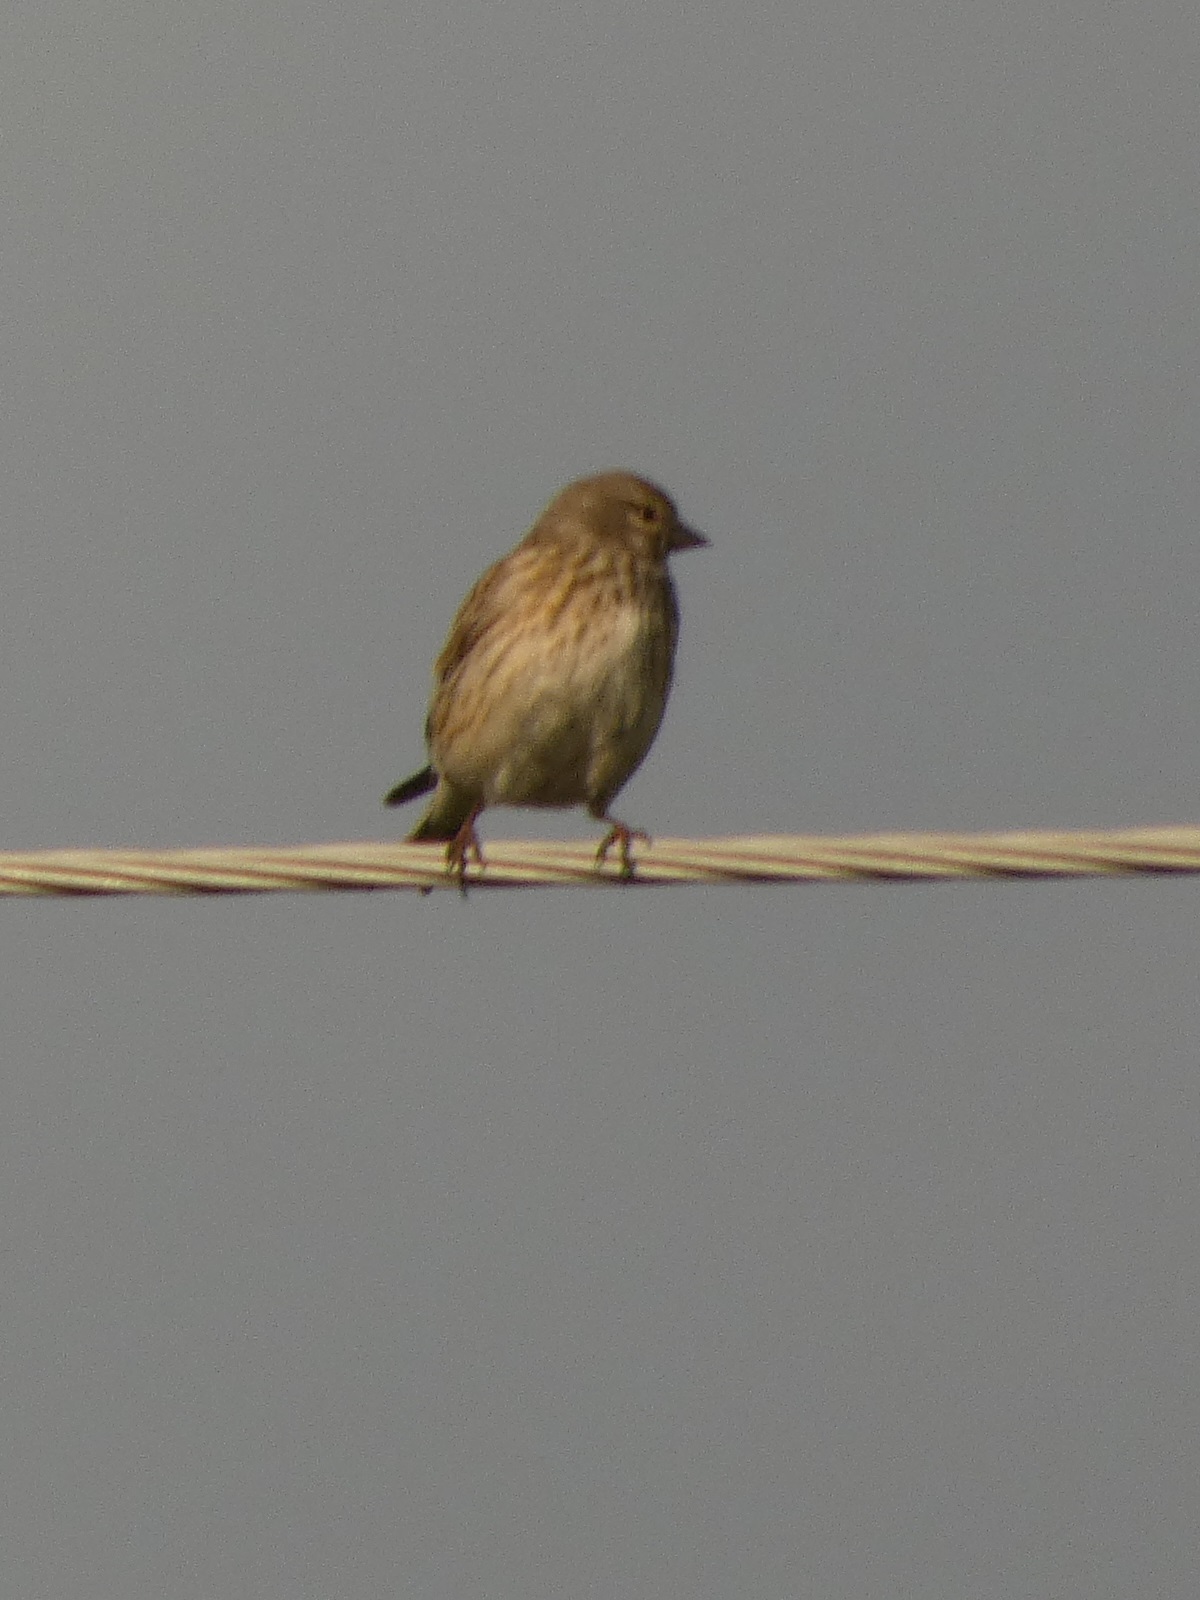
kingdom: Animalia
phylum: Chordata
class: Aves
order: Passeriformes
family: Fringillidae
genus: Linaria
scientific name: Linaria cannabina
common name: Common linnet
